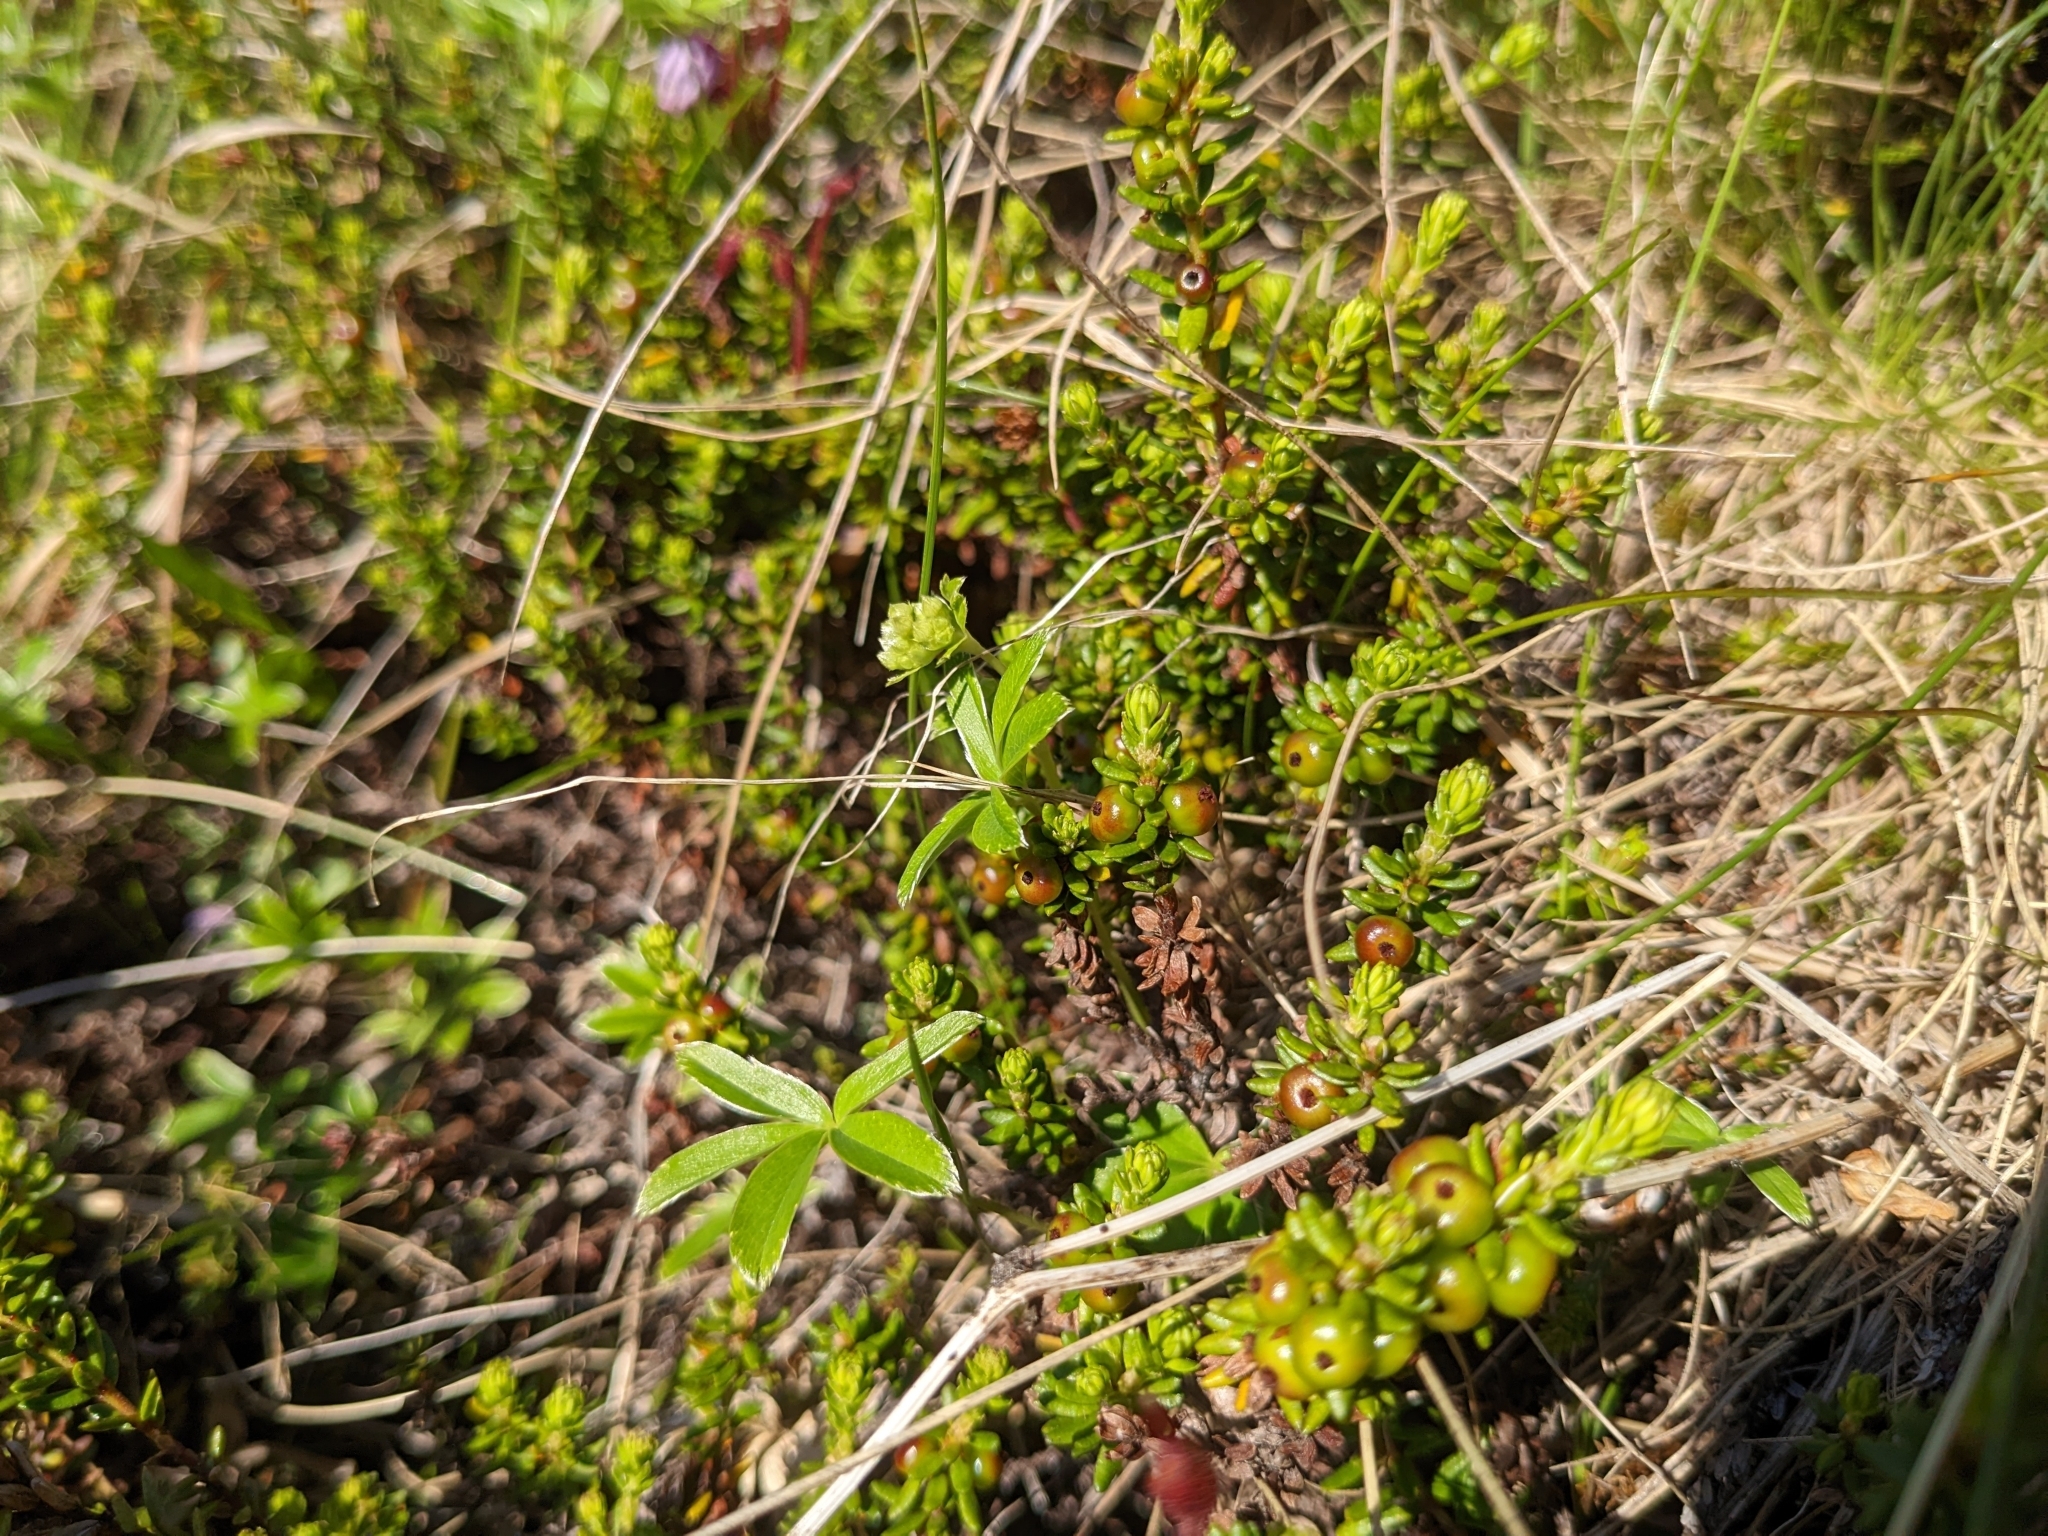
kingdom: Plantae
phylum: Tracheophyta
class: Magnoliopsida
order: Ericales
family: Ericaceae
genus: Empetrum
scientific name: Empetrum nigrum
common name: Black crowberry
